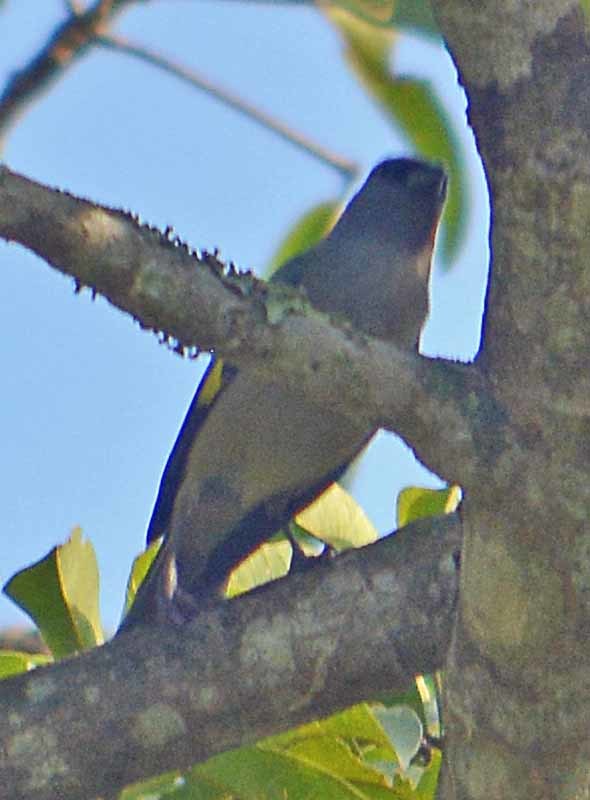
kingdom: Animalia
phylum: Chordata
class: Aves
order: Passeriformes
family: Thraupidae
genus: Thraupis
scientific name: Thraupis abbas
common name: Yellow-winged tanager
